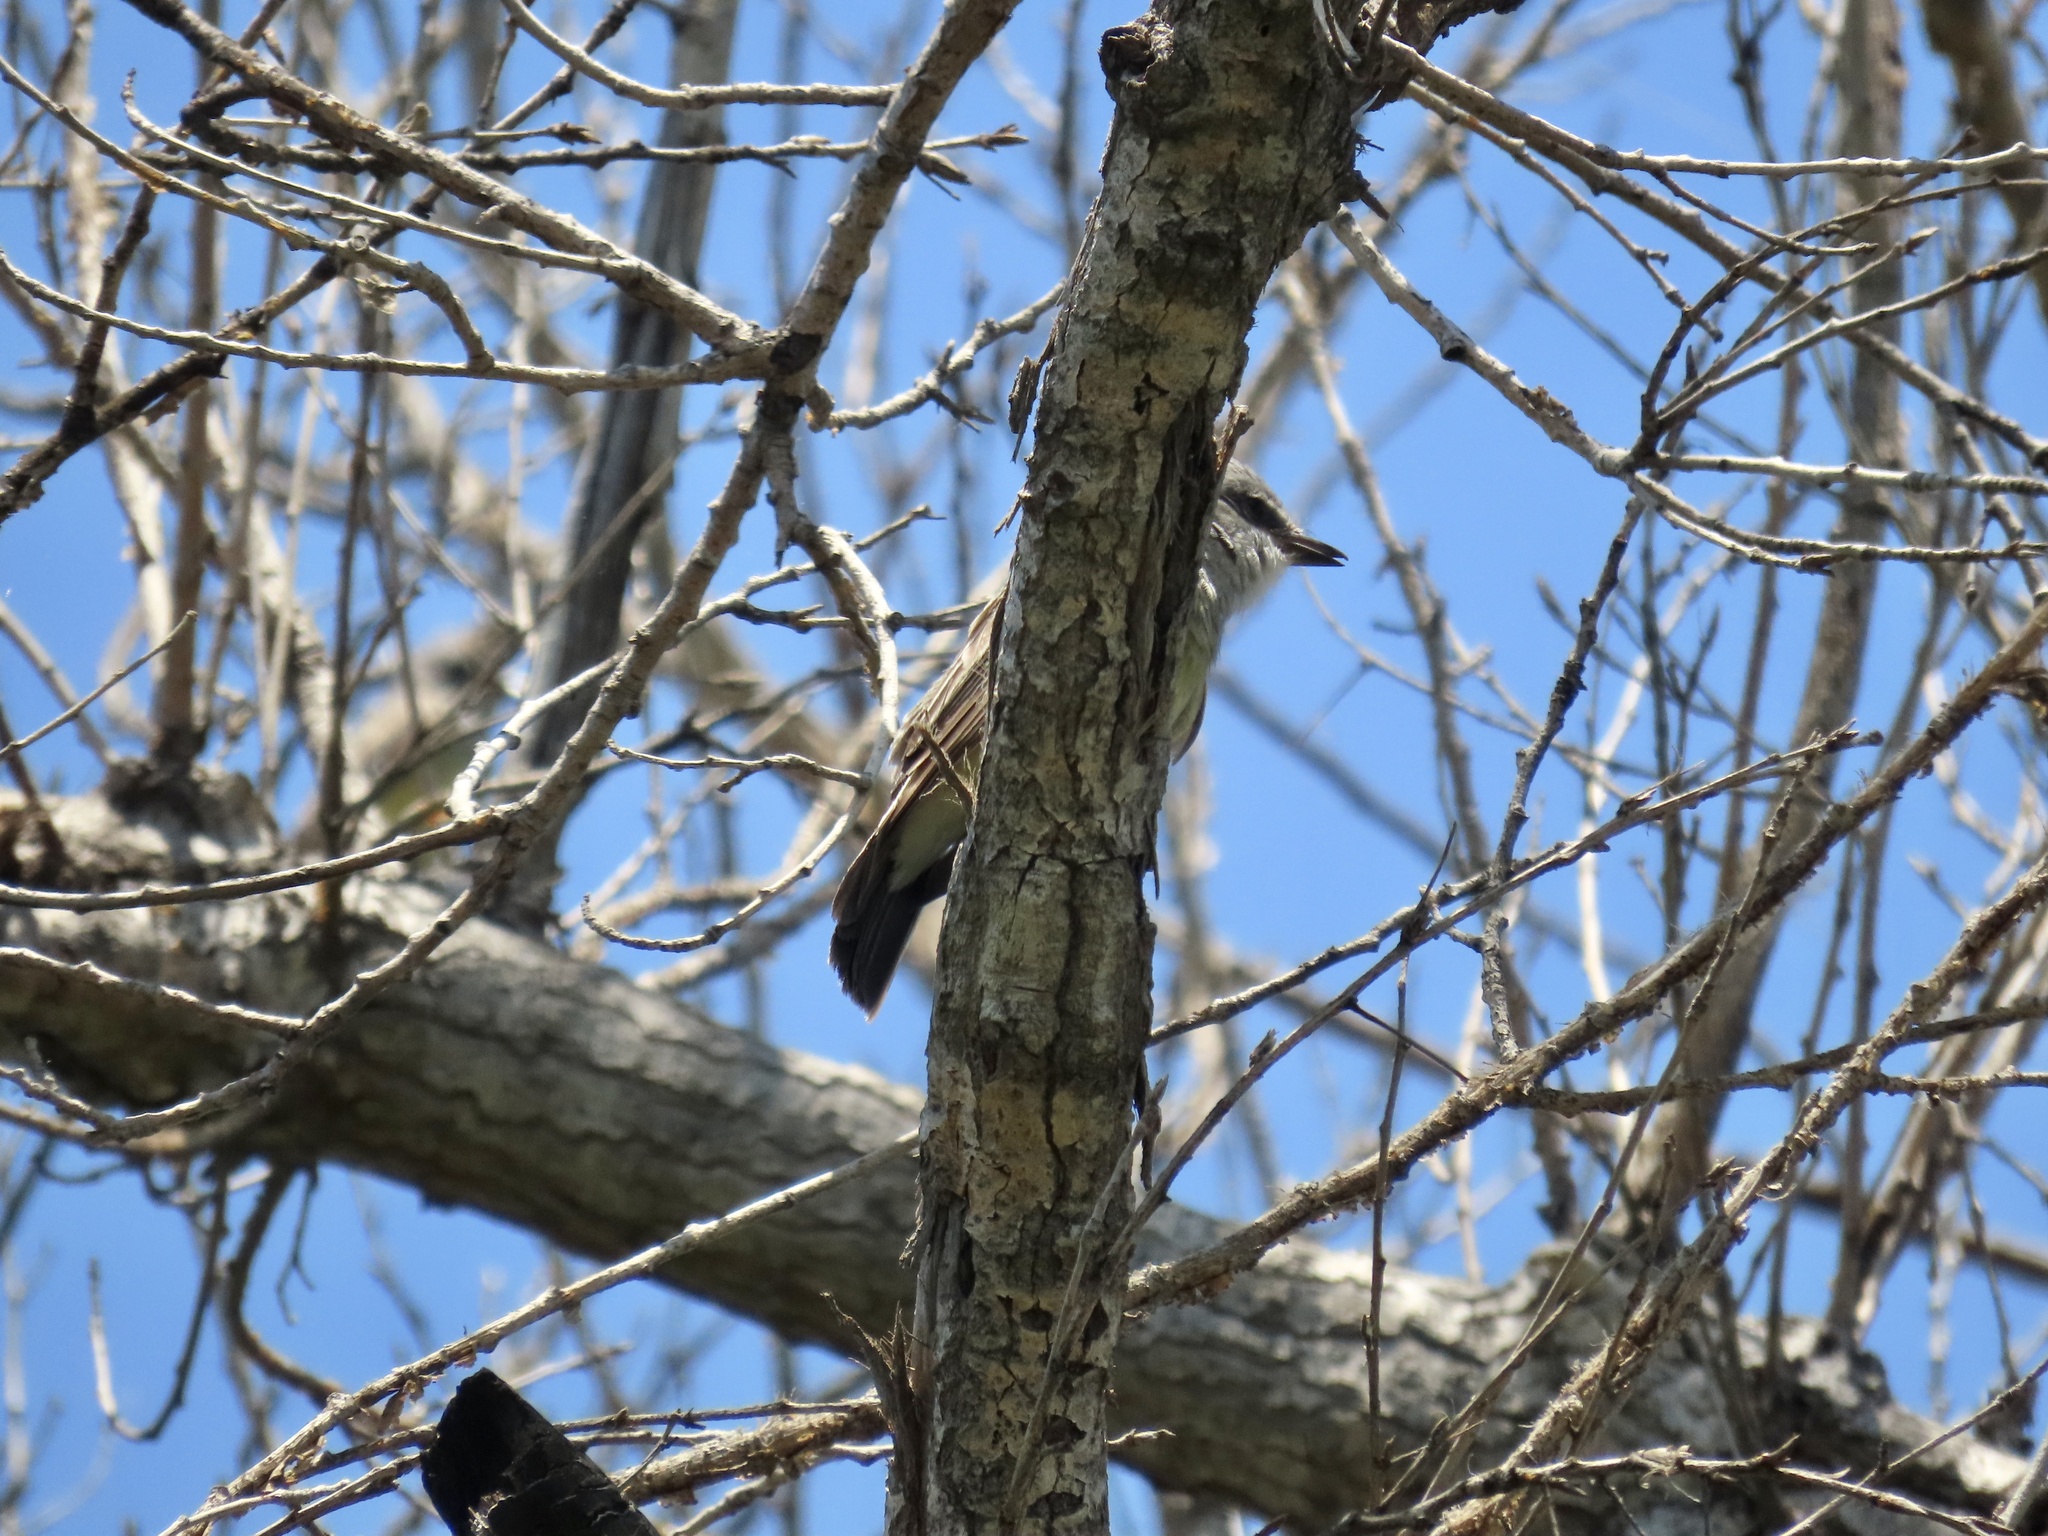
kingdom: Animalia
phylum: Chordata
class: Aves
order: Passeriformes
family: Tyrannidae
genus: Tyrannus
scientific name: Tyrannus verticalis
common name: Western kingbird
